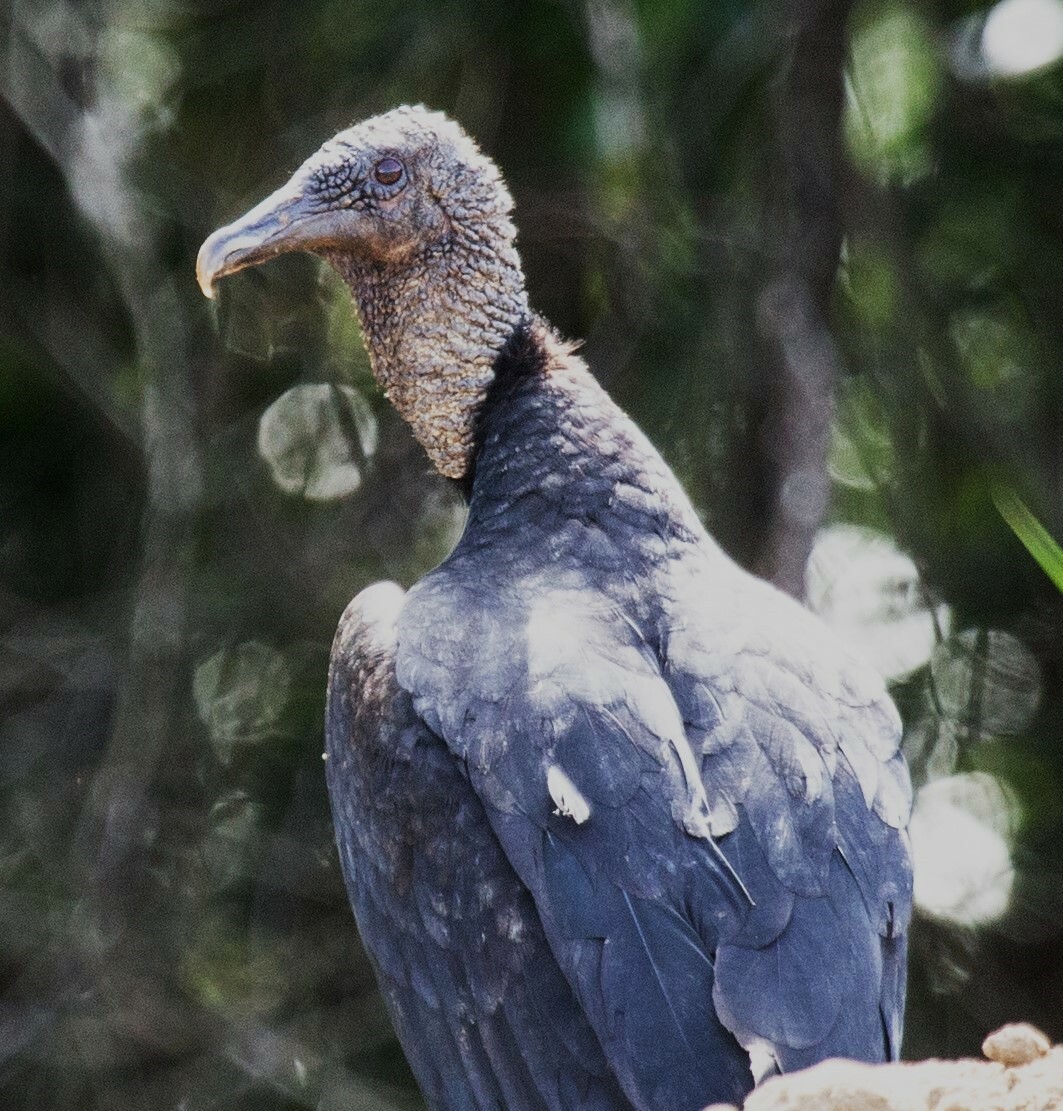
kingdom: Animalia
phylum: Chordata
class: Aves
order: Accipitriformes
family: Cathartidae
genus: Coragyps
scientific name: Coragyps atratus
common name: Black vulture
